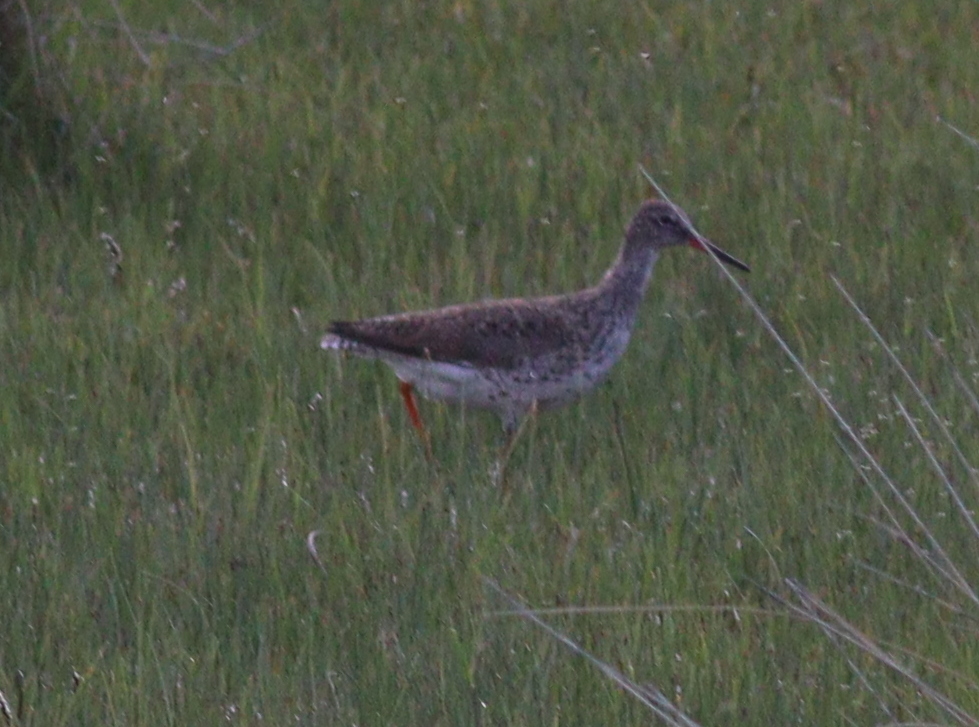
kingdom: Animalia
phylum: Chordata
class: Aves
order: Charadriiformes
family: Scolopacidae
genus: Tringa
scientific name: Tringa totanus
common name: Common redshank
